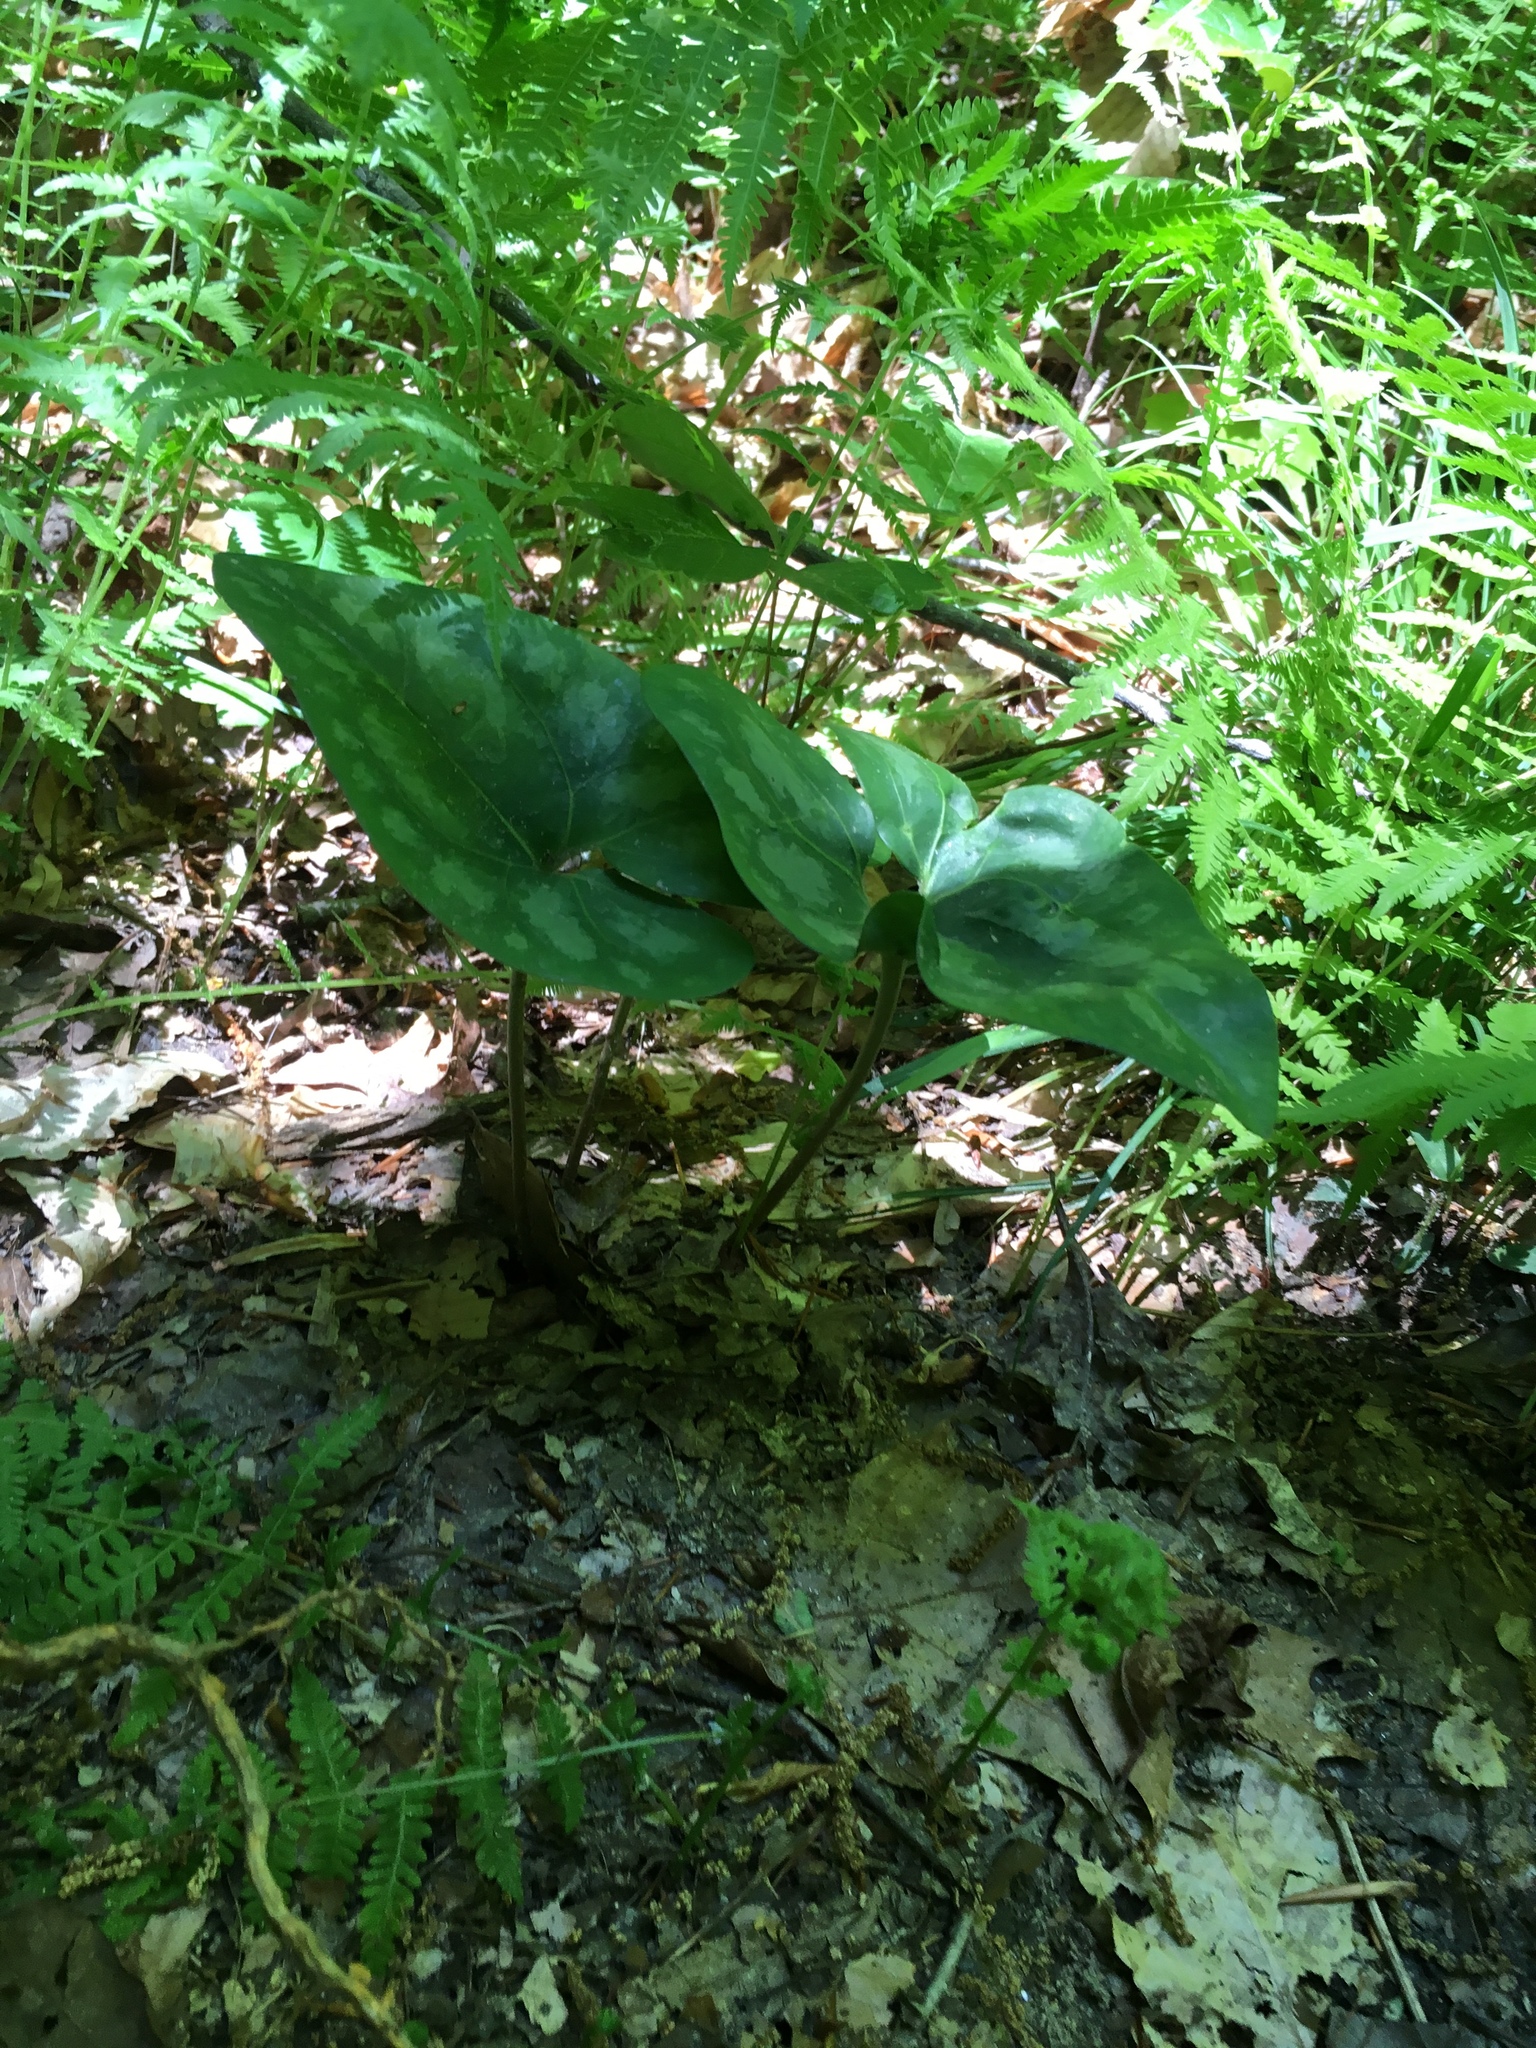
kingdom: Plantae
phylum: Tracheophyta
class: Magnoliopsida
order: Piperales
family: Aristolochiaceae
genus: Hexastylis
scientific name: Hexastylis arifolia
